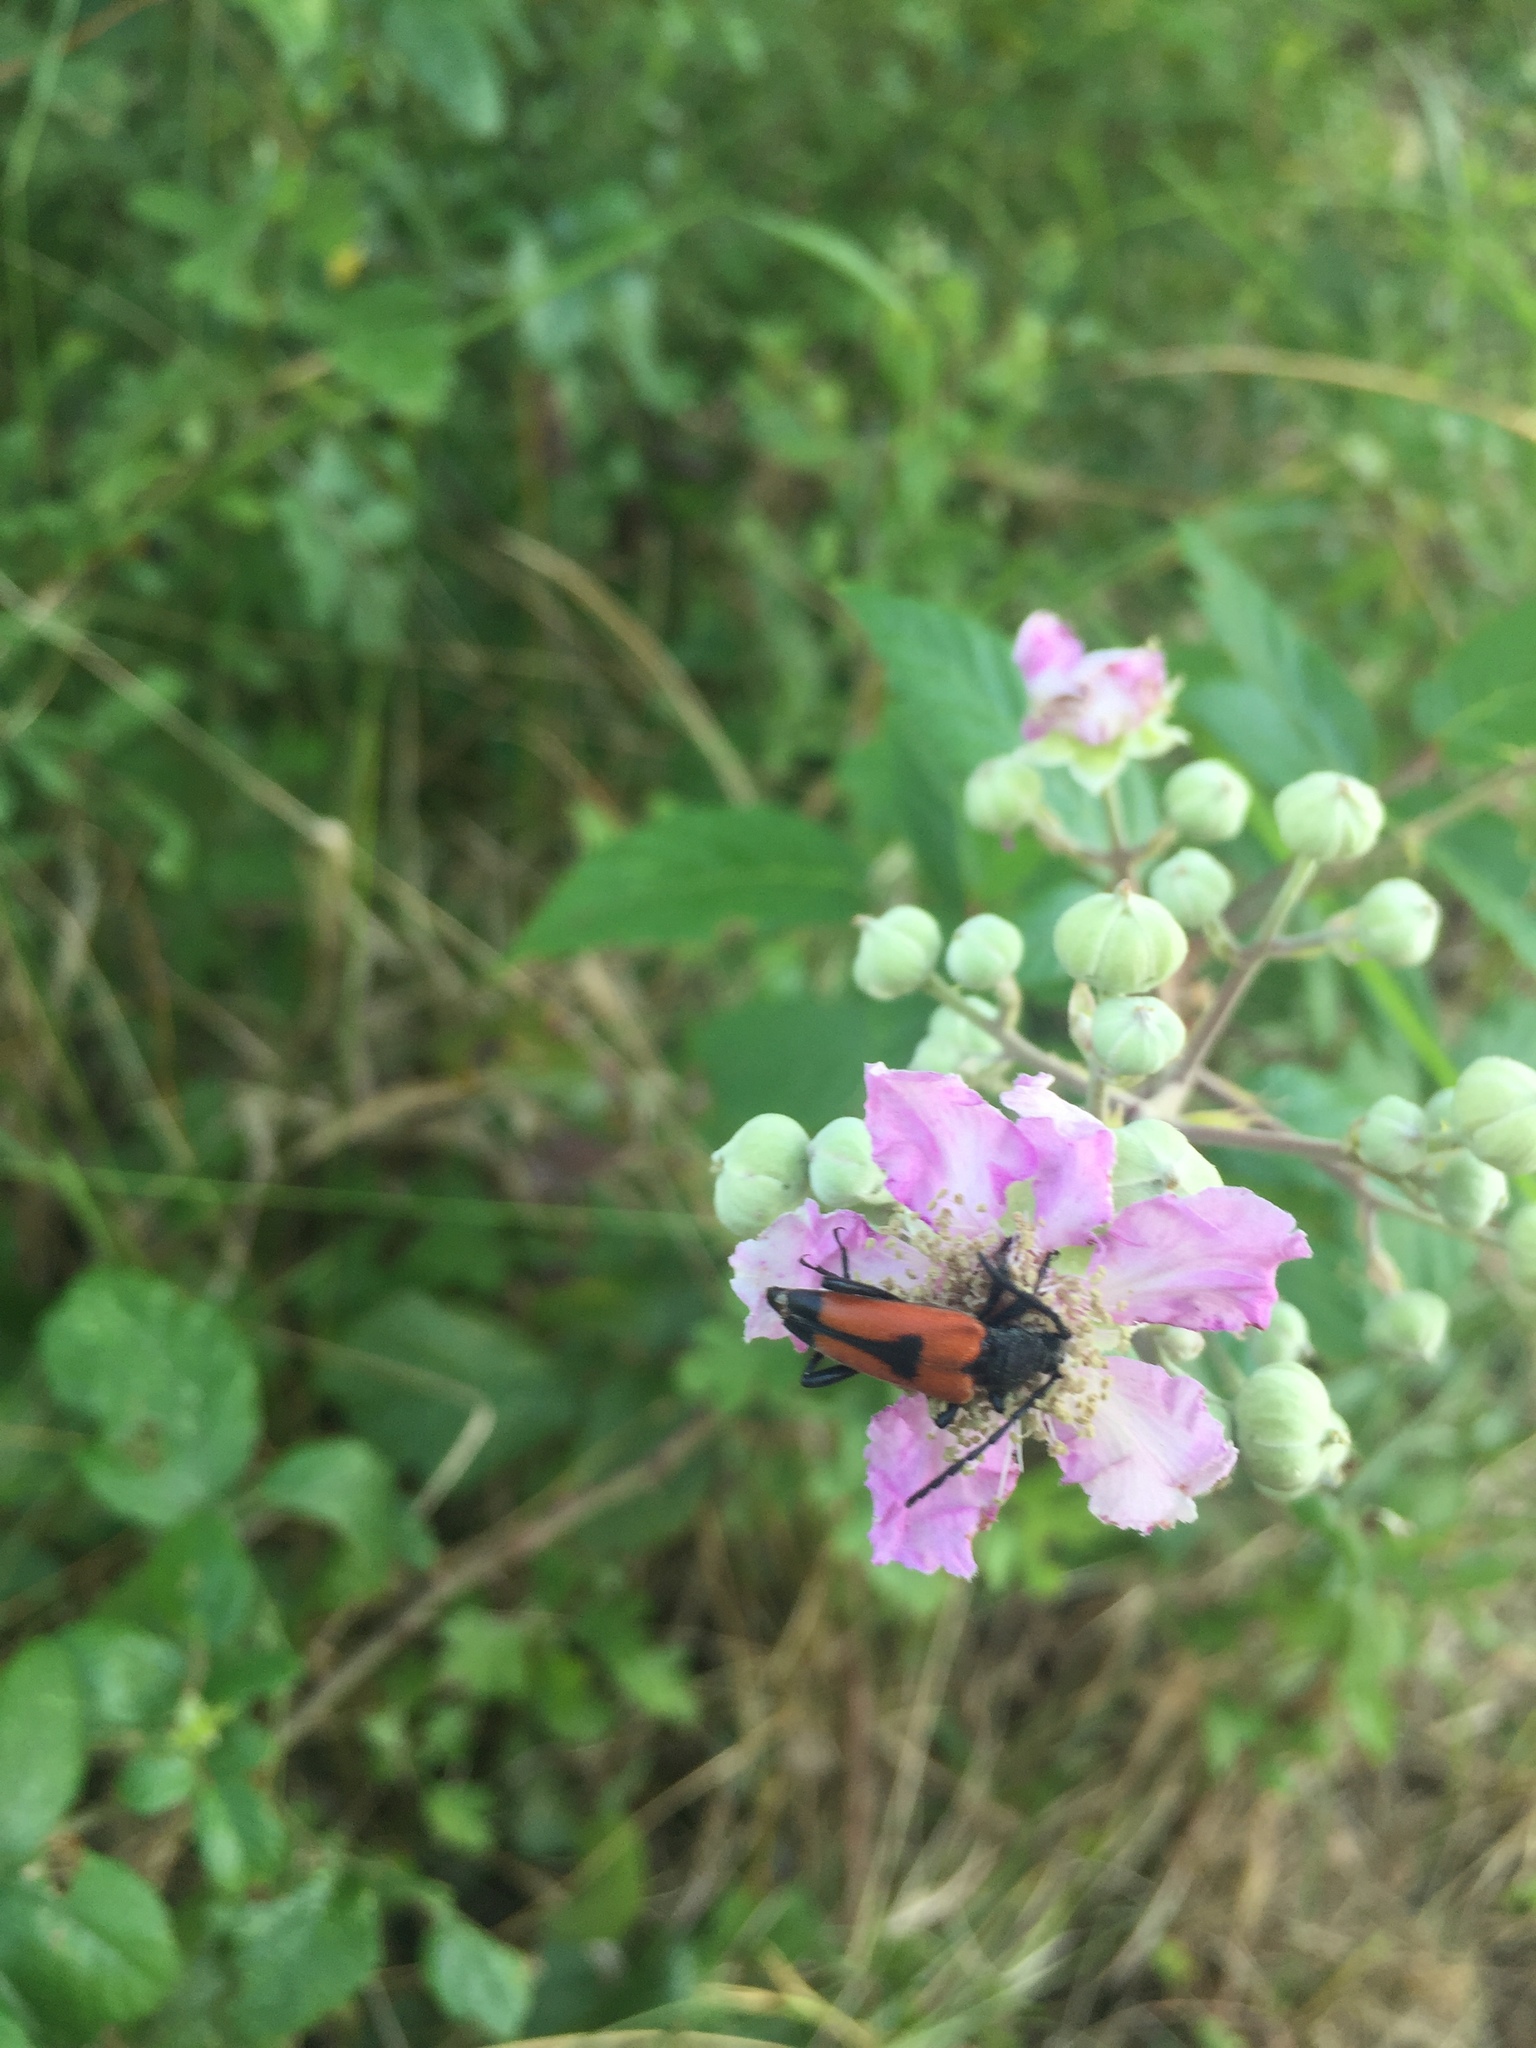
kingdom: Animalia
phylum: Arthropoda
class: Insecta
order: Coleoptera
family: Cerambycidae
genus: Stictoleptura
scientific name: Stictoleptura cordigera
